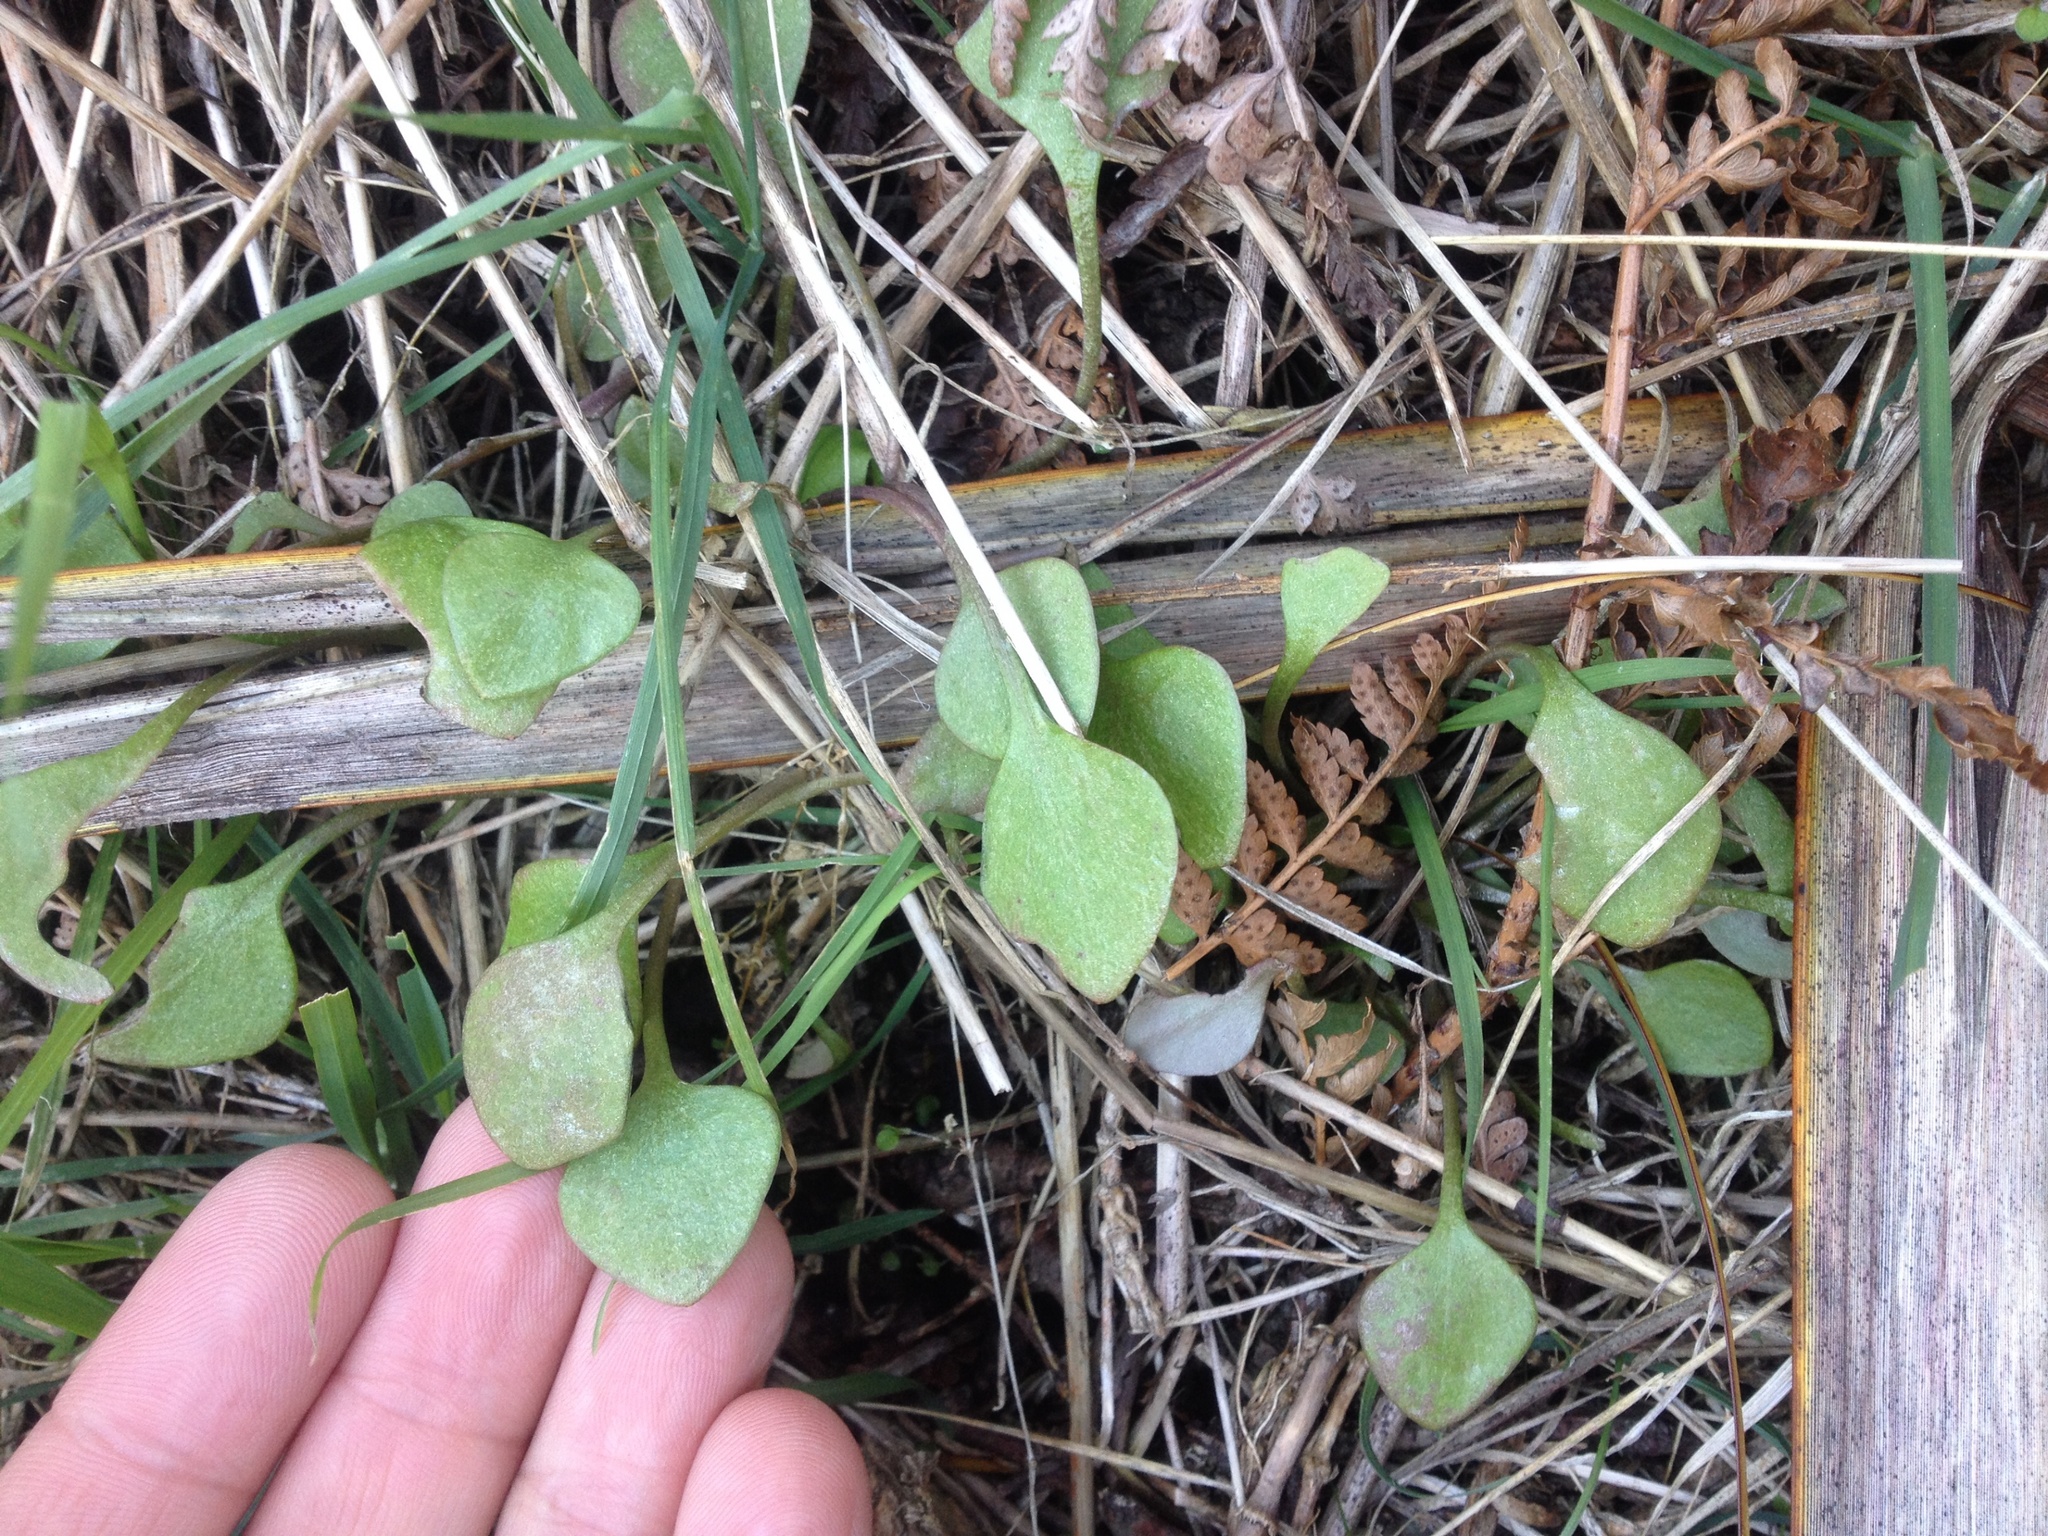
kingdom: Plantae
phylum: Tracheophyta
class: Magnoliopsida
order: Caryophyllales
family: Montiaceae
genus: Claytonia
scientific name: Claytonia perfoliata
